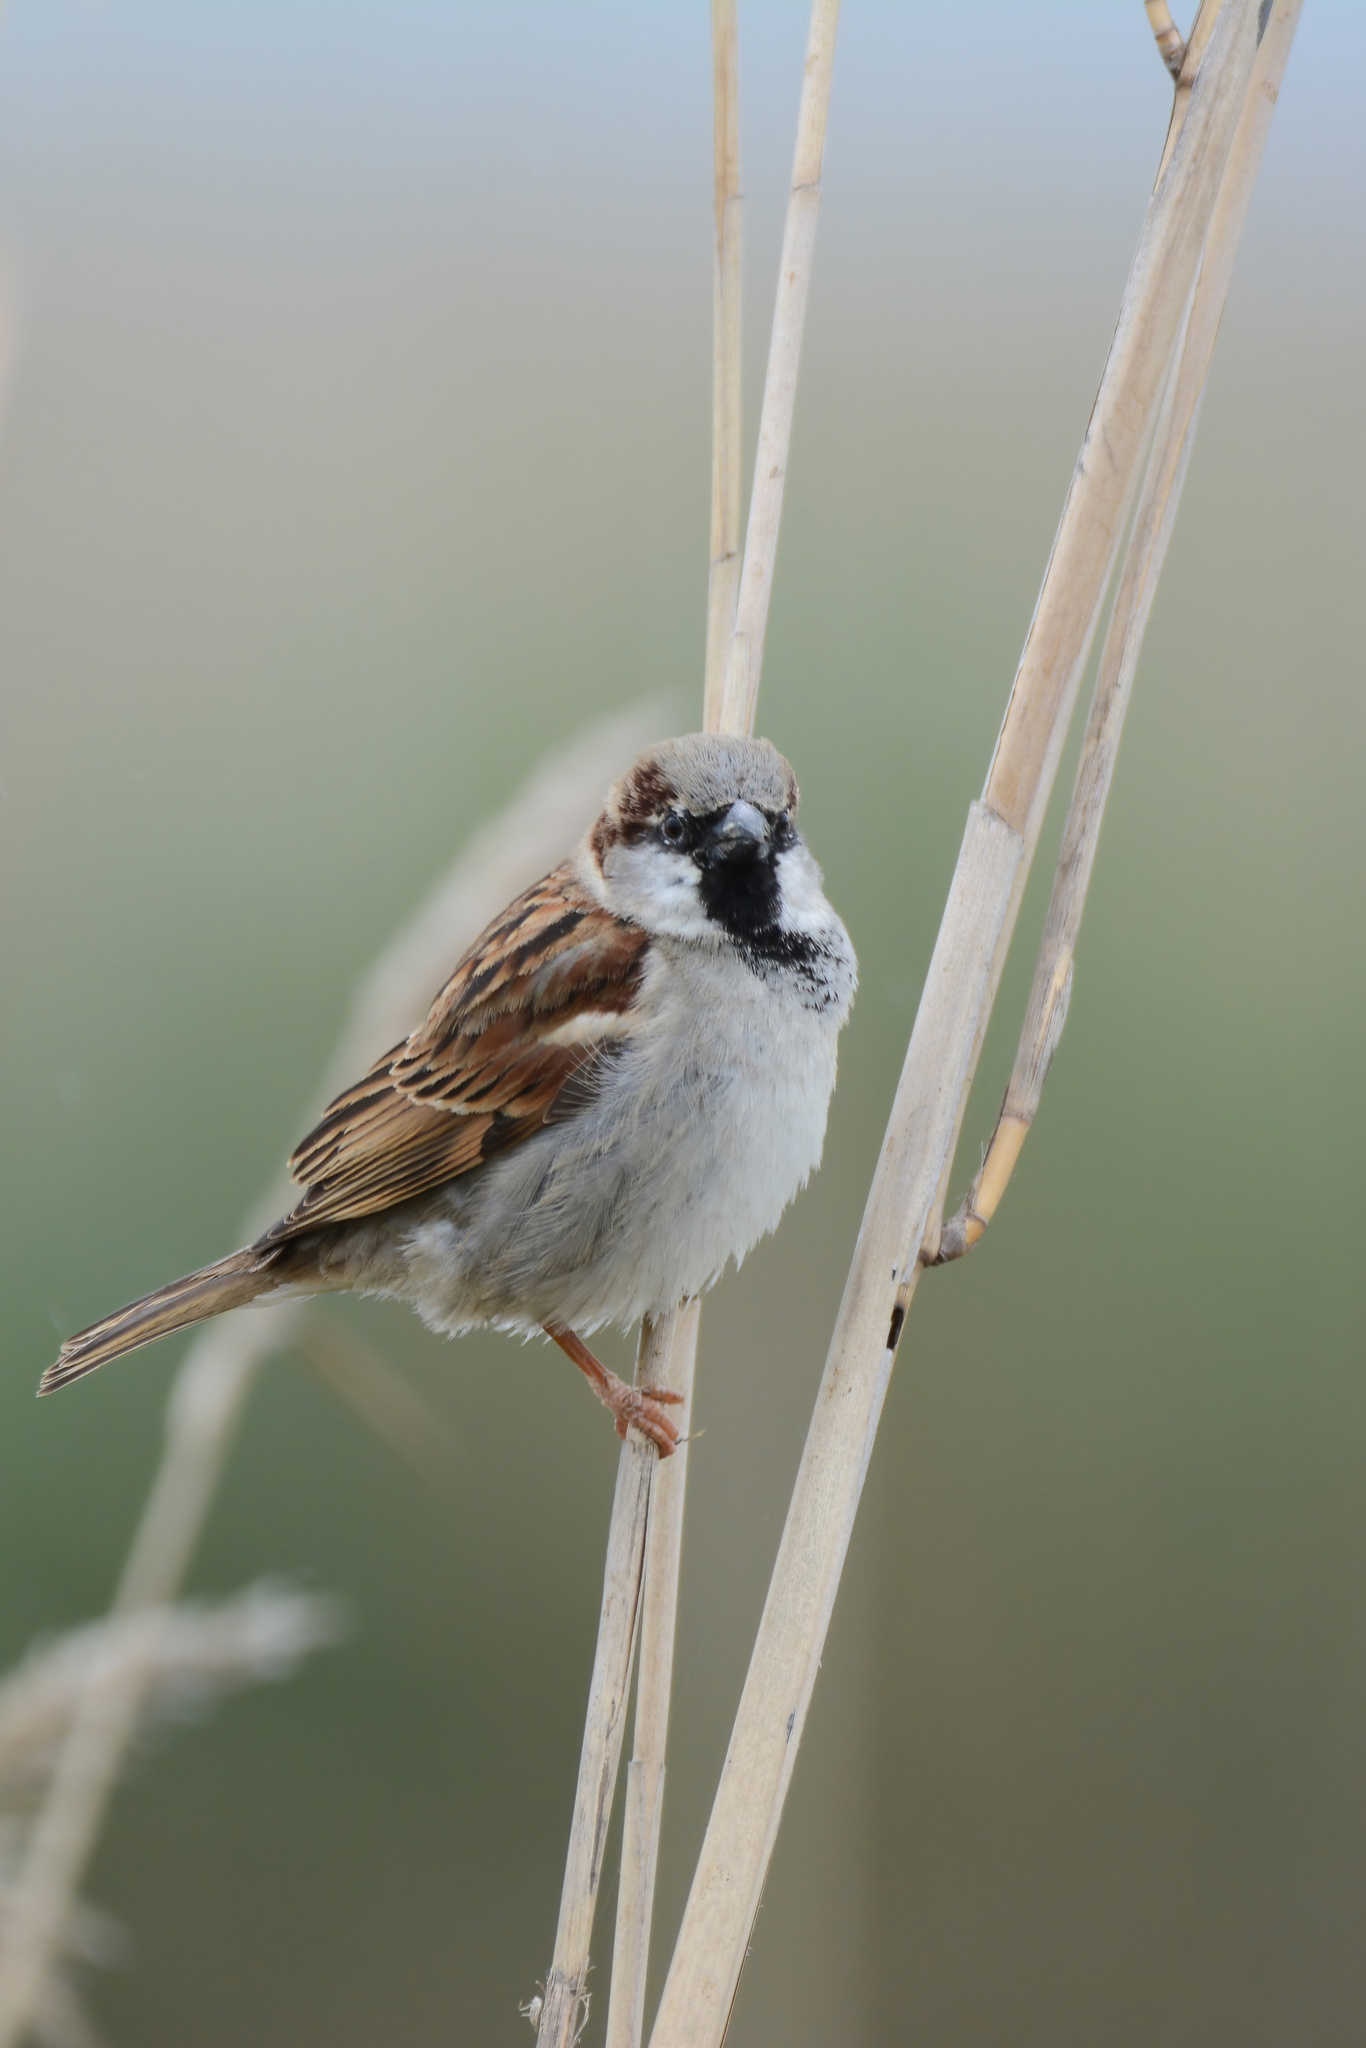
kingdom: Animalia
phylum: Chordata
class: Aves
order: Passeriformes
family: Passeridae
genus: Passer
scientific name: Passer domesticus
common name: House sparrow
